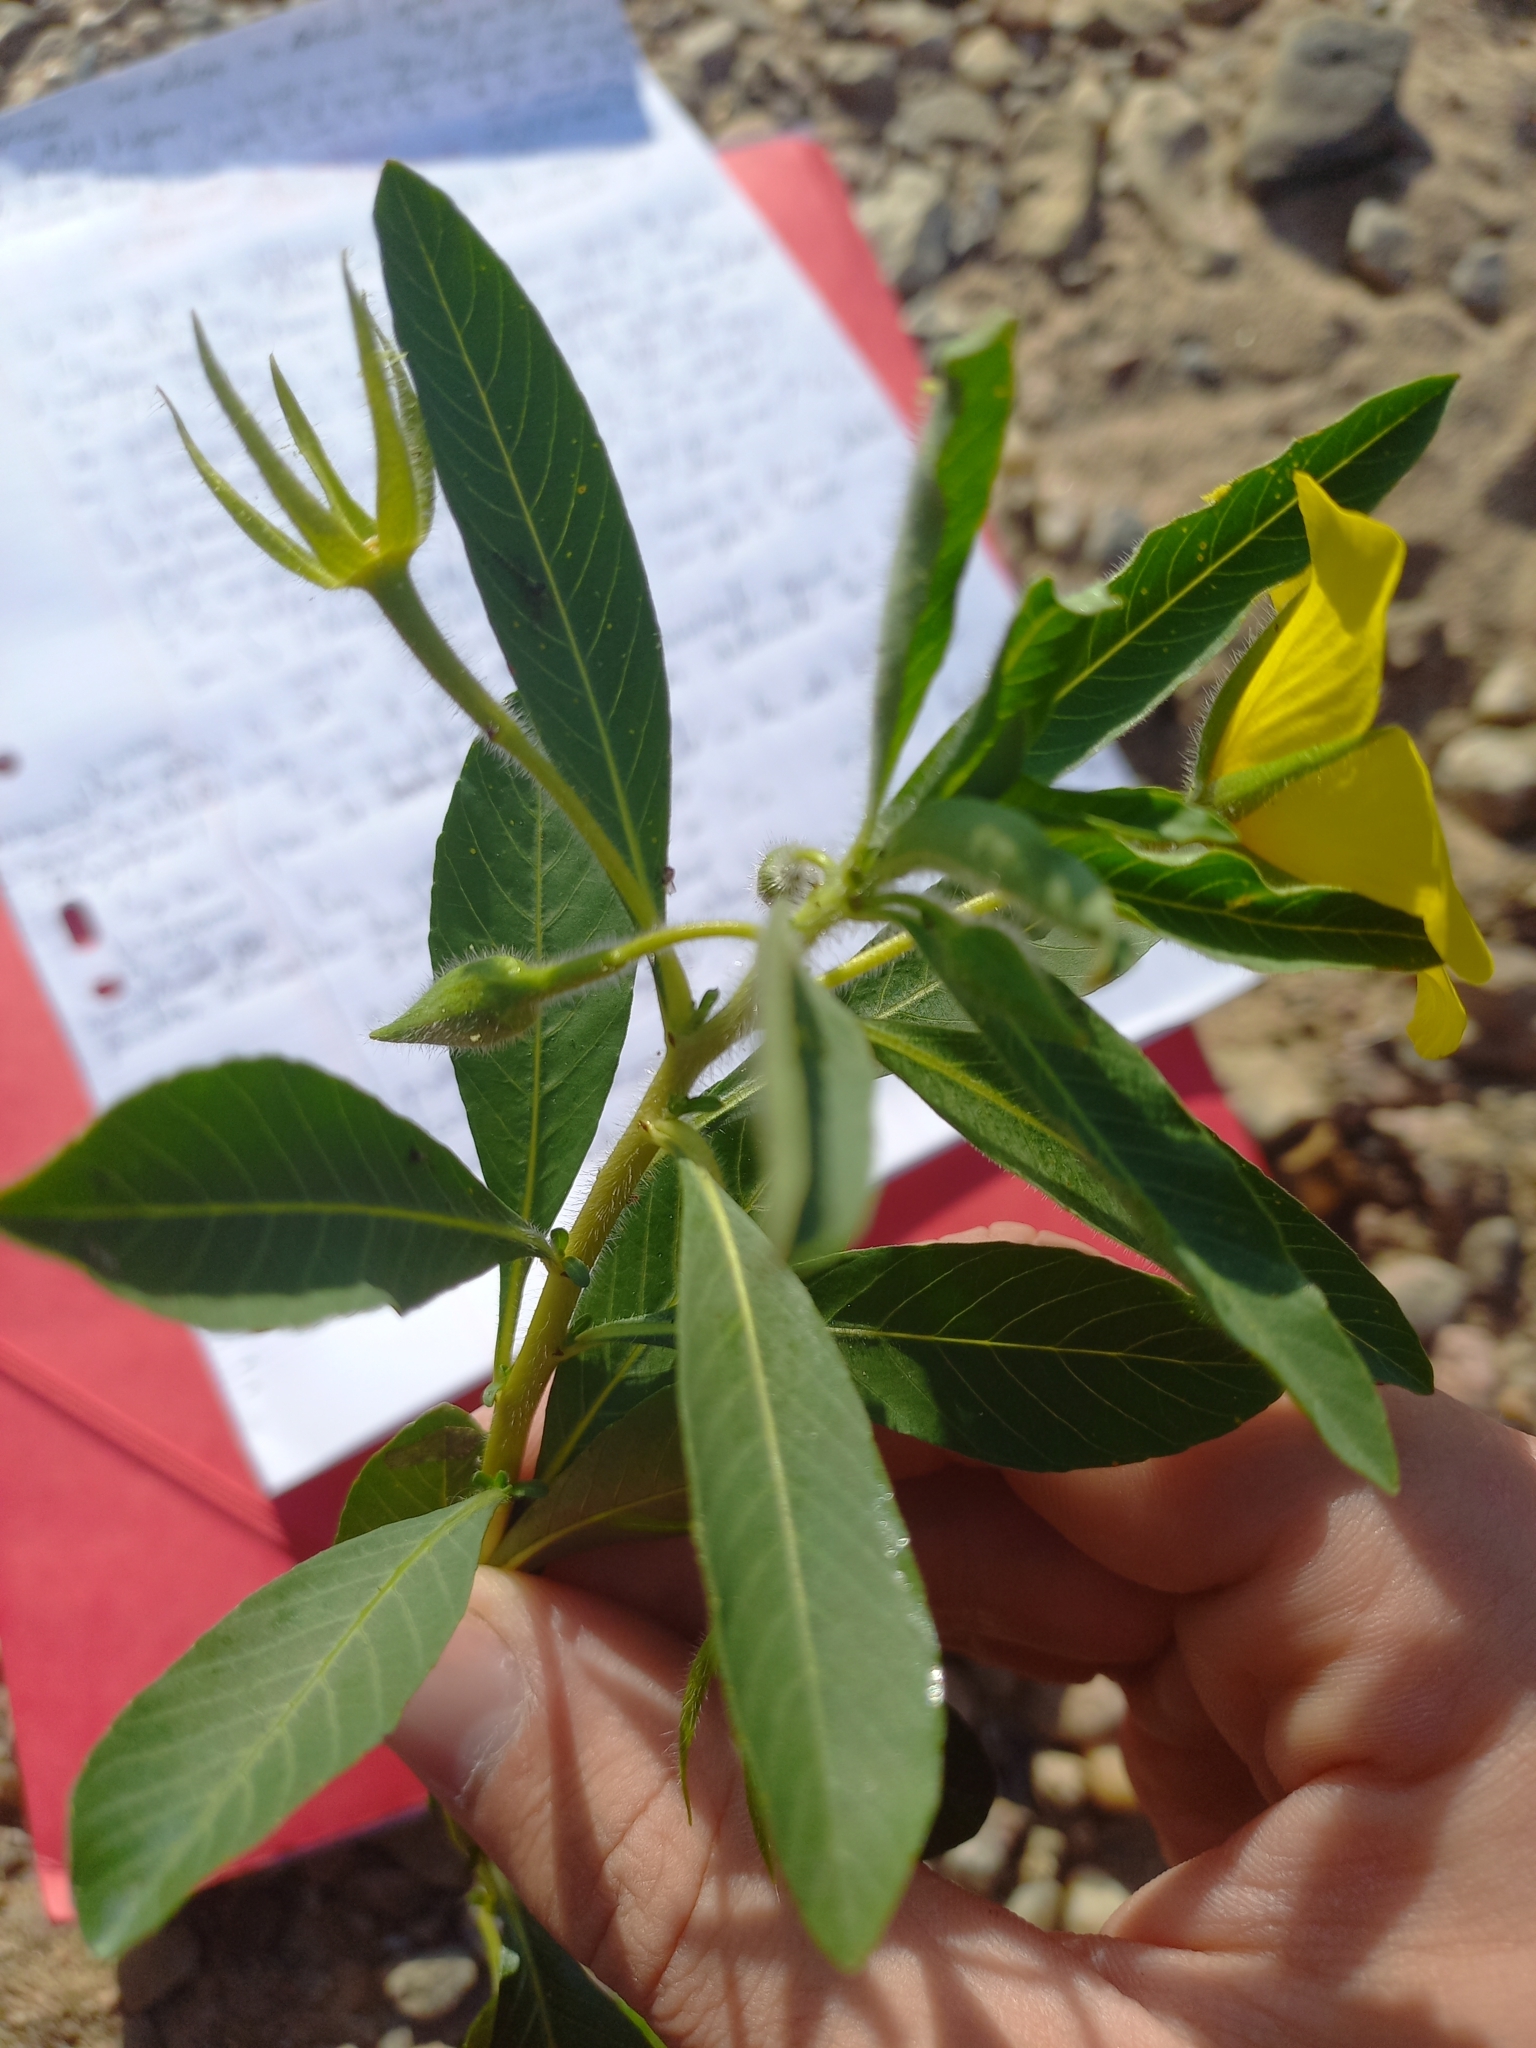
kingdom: Plantae
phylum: Tracheophyta
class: Magnoliopsida
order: Myrtales
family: Onagraceae
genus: Ludwigia
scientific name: Ludwigia grandiflora
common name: Water primrose
